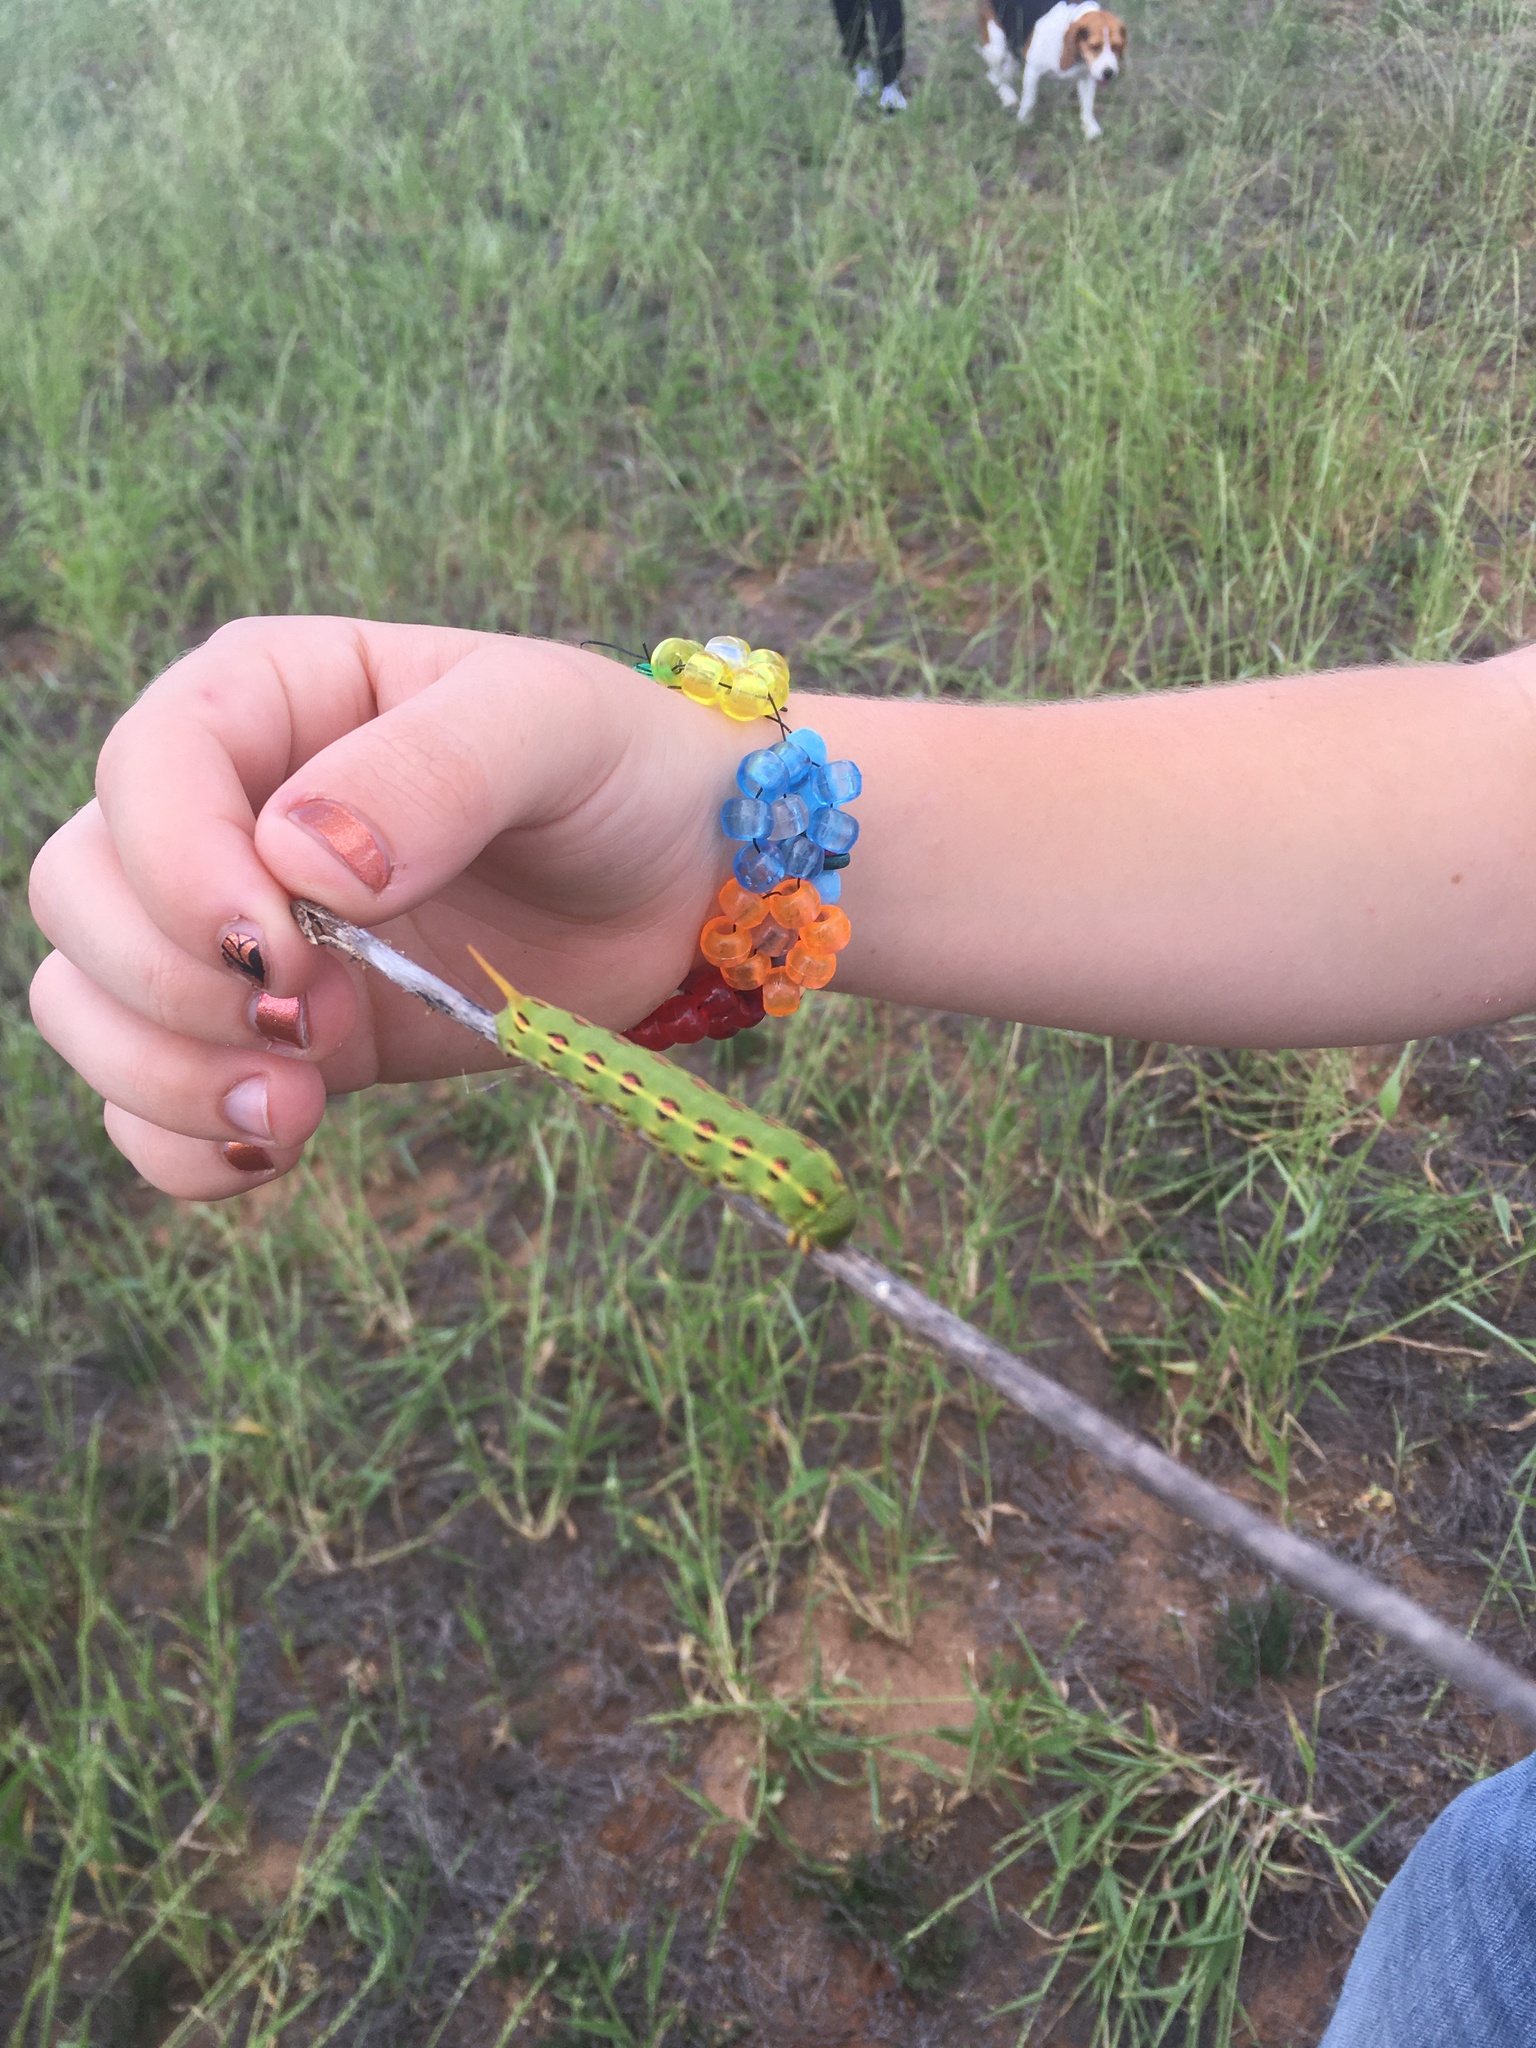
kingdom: Animalia
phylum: Arthropoda
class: Insecta
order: Lepidoptera
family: Sphingidae
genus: Hyles
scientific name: Hyles lineata
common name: White-lined sphinx
